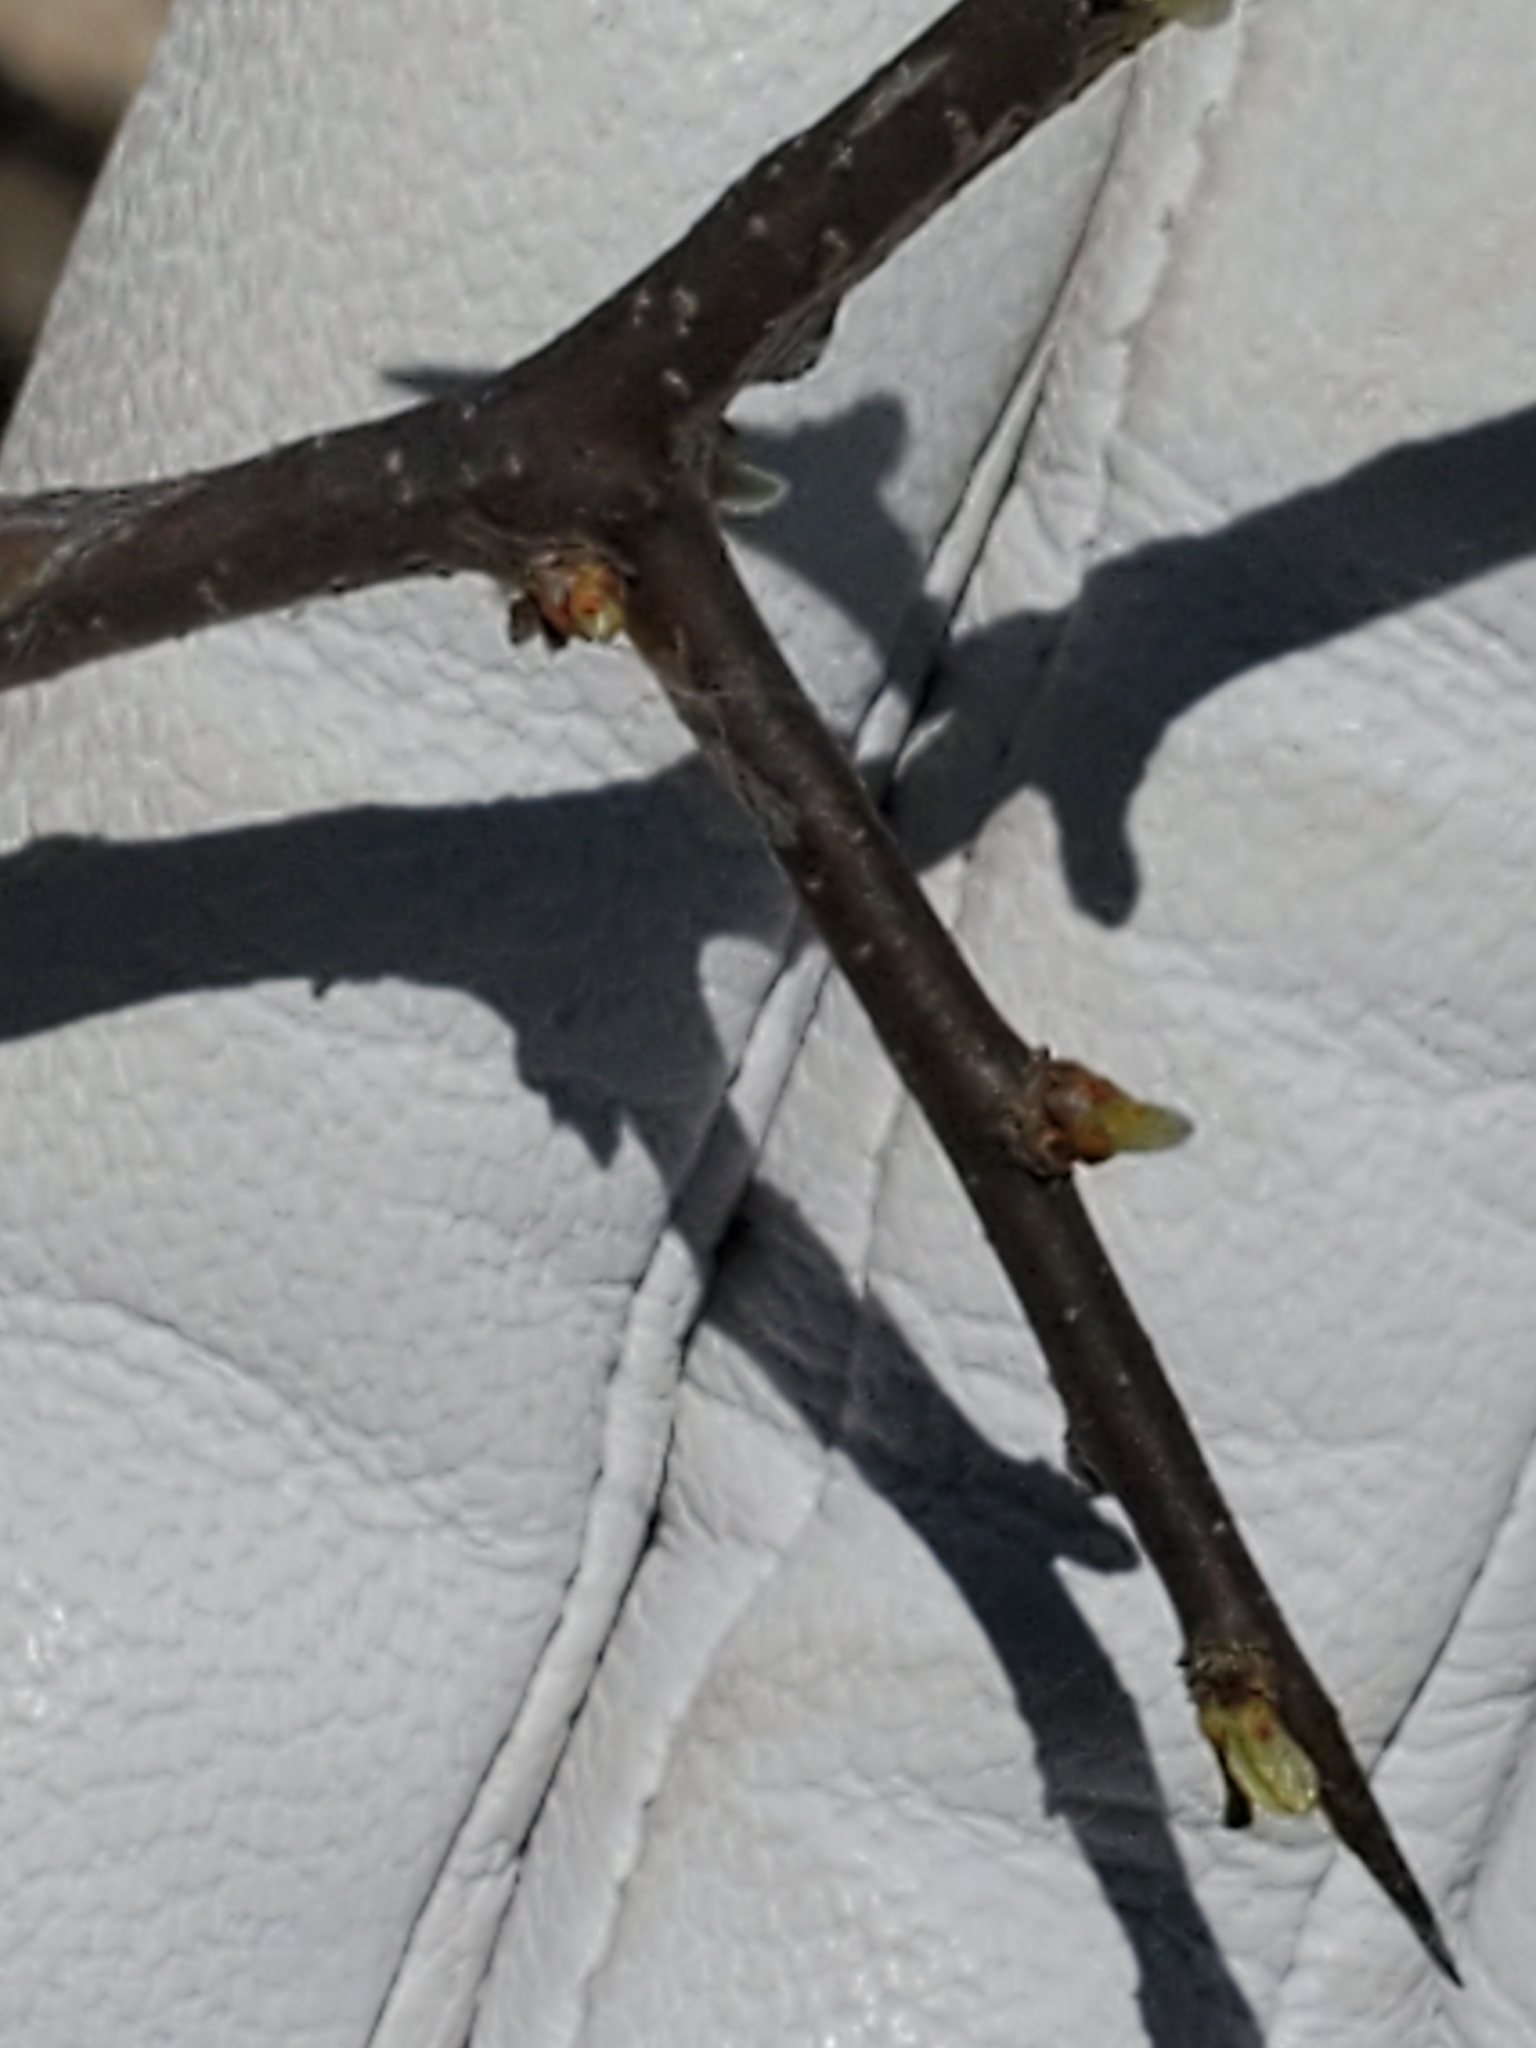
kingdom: Plantae
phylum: Tracheophyta
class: Magnoliopsida
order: Ericales
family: Sapotaceae
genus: Sideroxylon
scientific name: Sideroxylon lanuginosum
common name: Chittamwood
